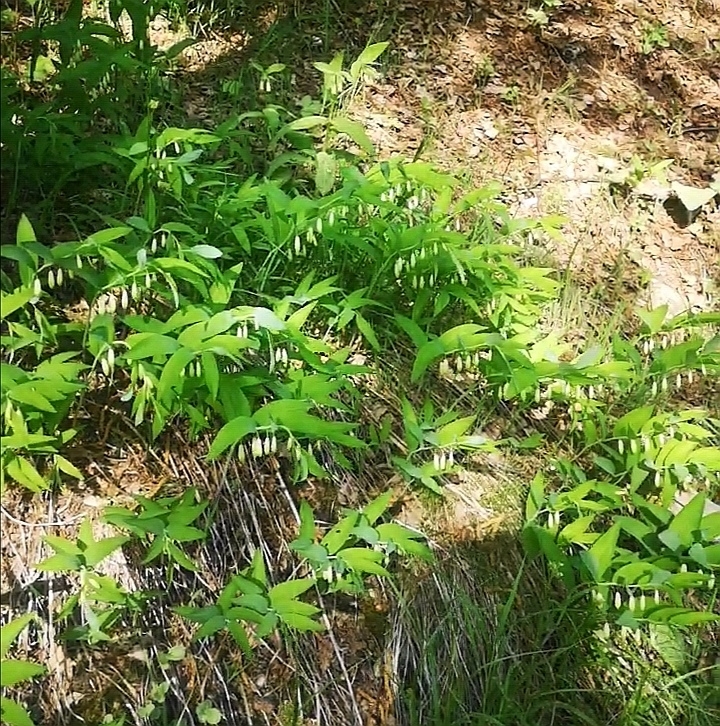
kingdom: Plantae
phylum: Tracheophyta
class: Liliopsida
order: Asparagales
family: Asparagaceae
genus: Polygonatum
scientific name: Polygonatum odoratum
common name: Angular solomon's-seal
